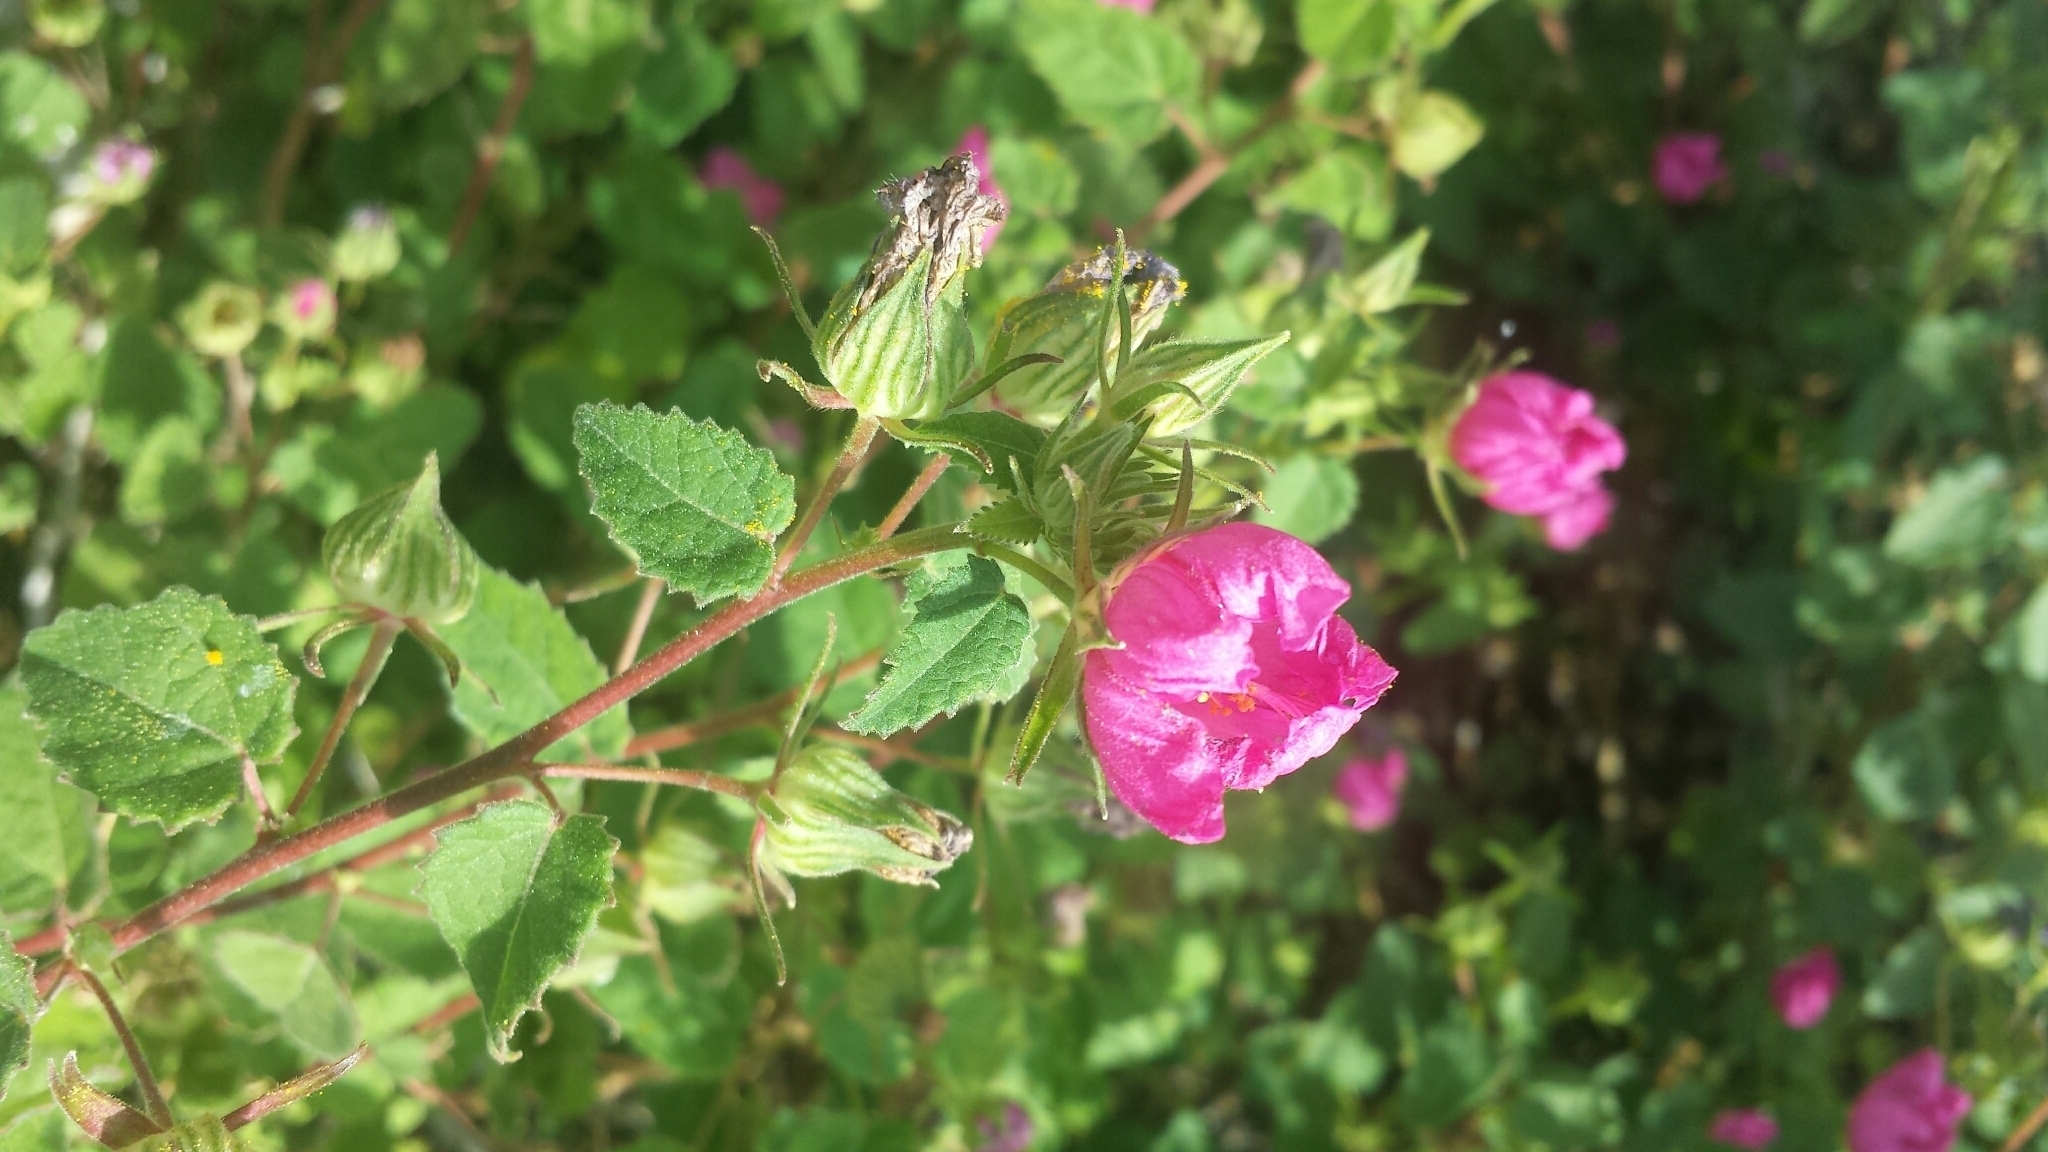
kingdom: Plantae
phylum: Tracheophyta
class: Magnoliopsida
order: Malvales
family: Malvaceae
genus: Pavonia
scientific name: Pavonia lasiopetala
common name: Texas swamp-mallow
